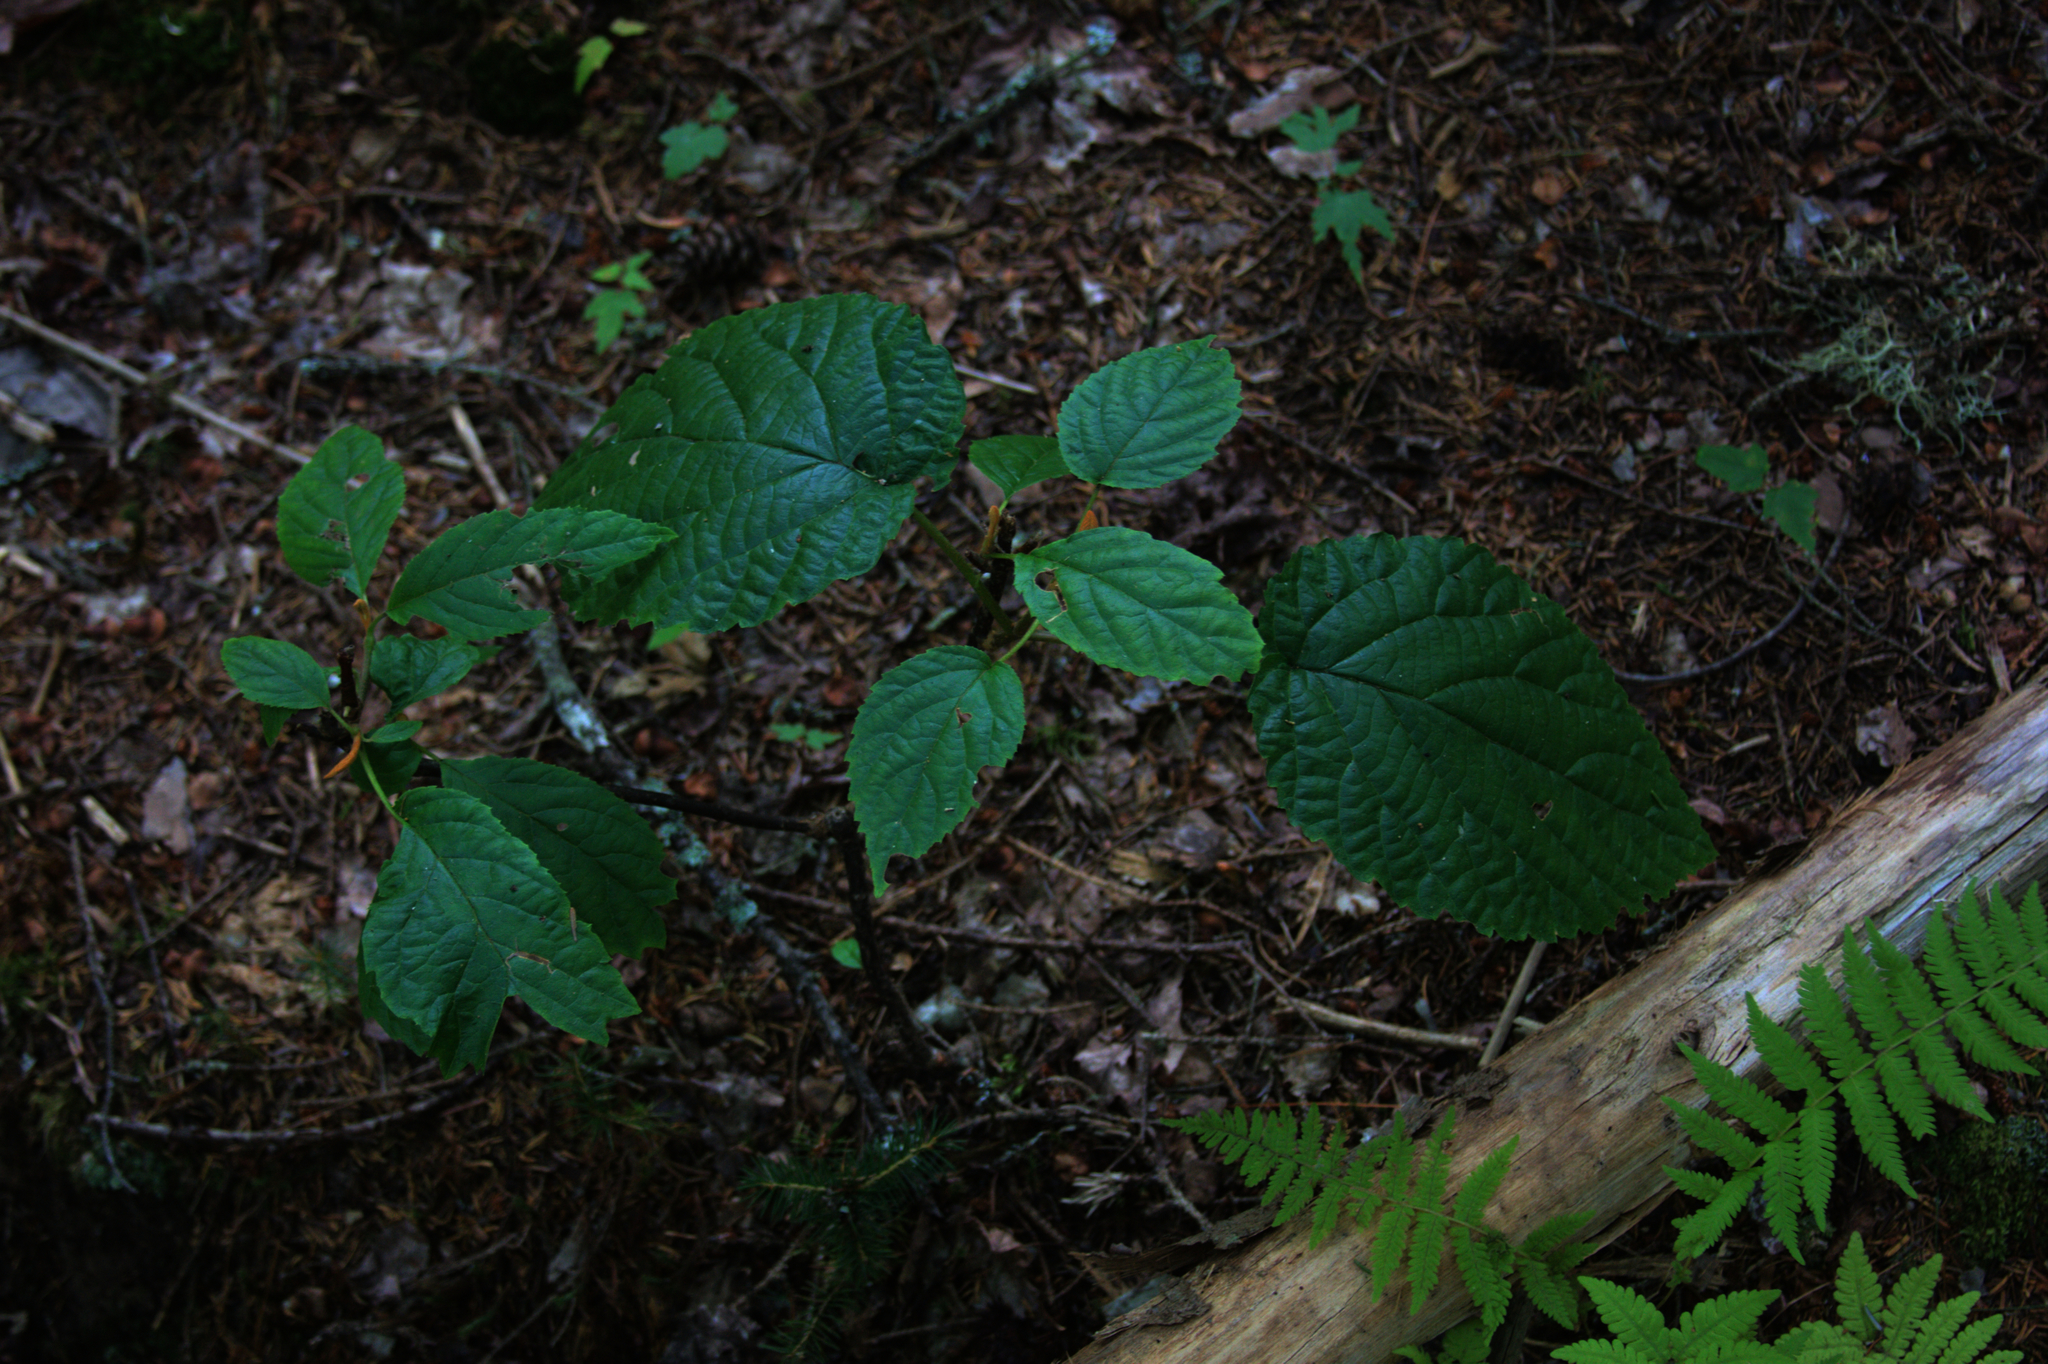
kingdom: Plantae
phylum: Tracheophyta
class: Magnoliopsida
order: Dipsacales
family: Viburnaceae
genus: Viburnum
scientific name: Viburnum lantanoides
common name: Hobblebush
